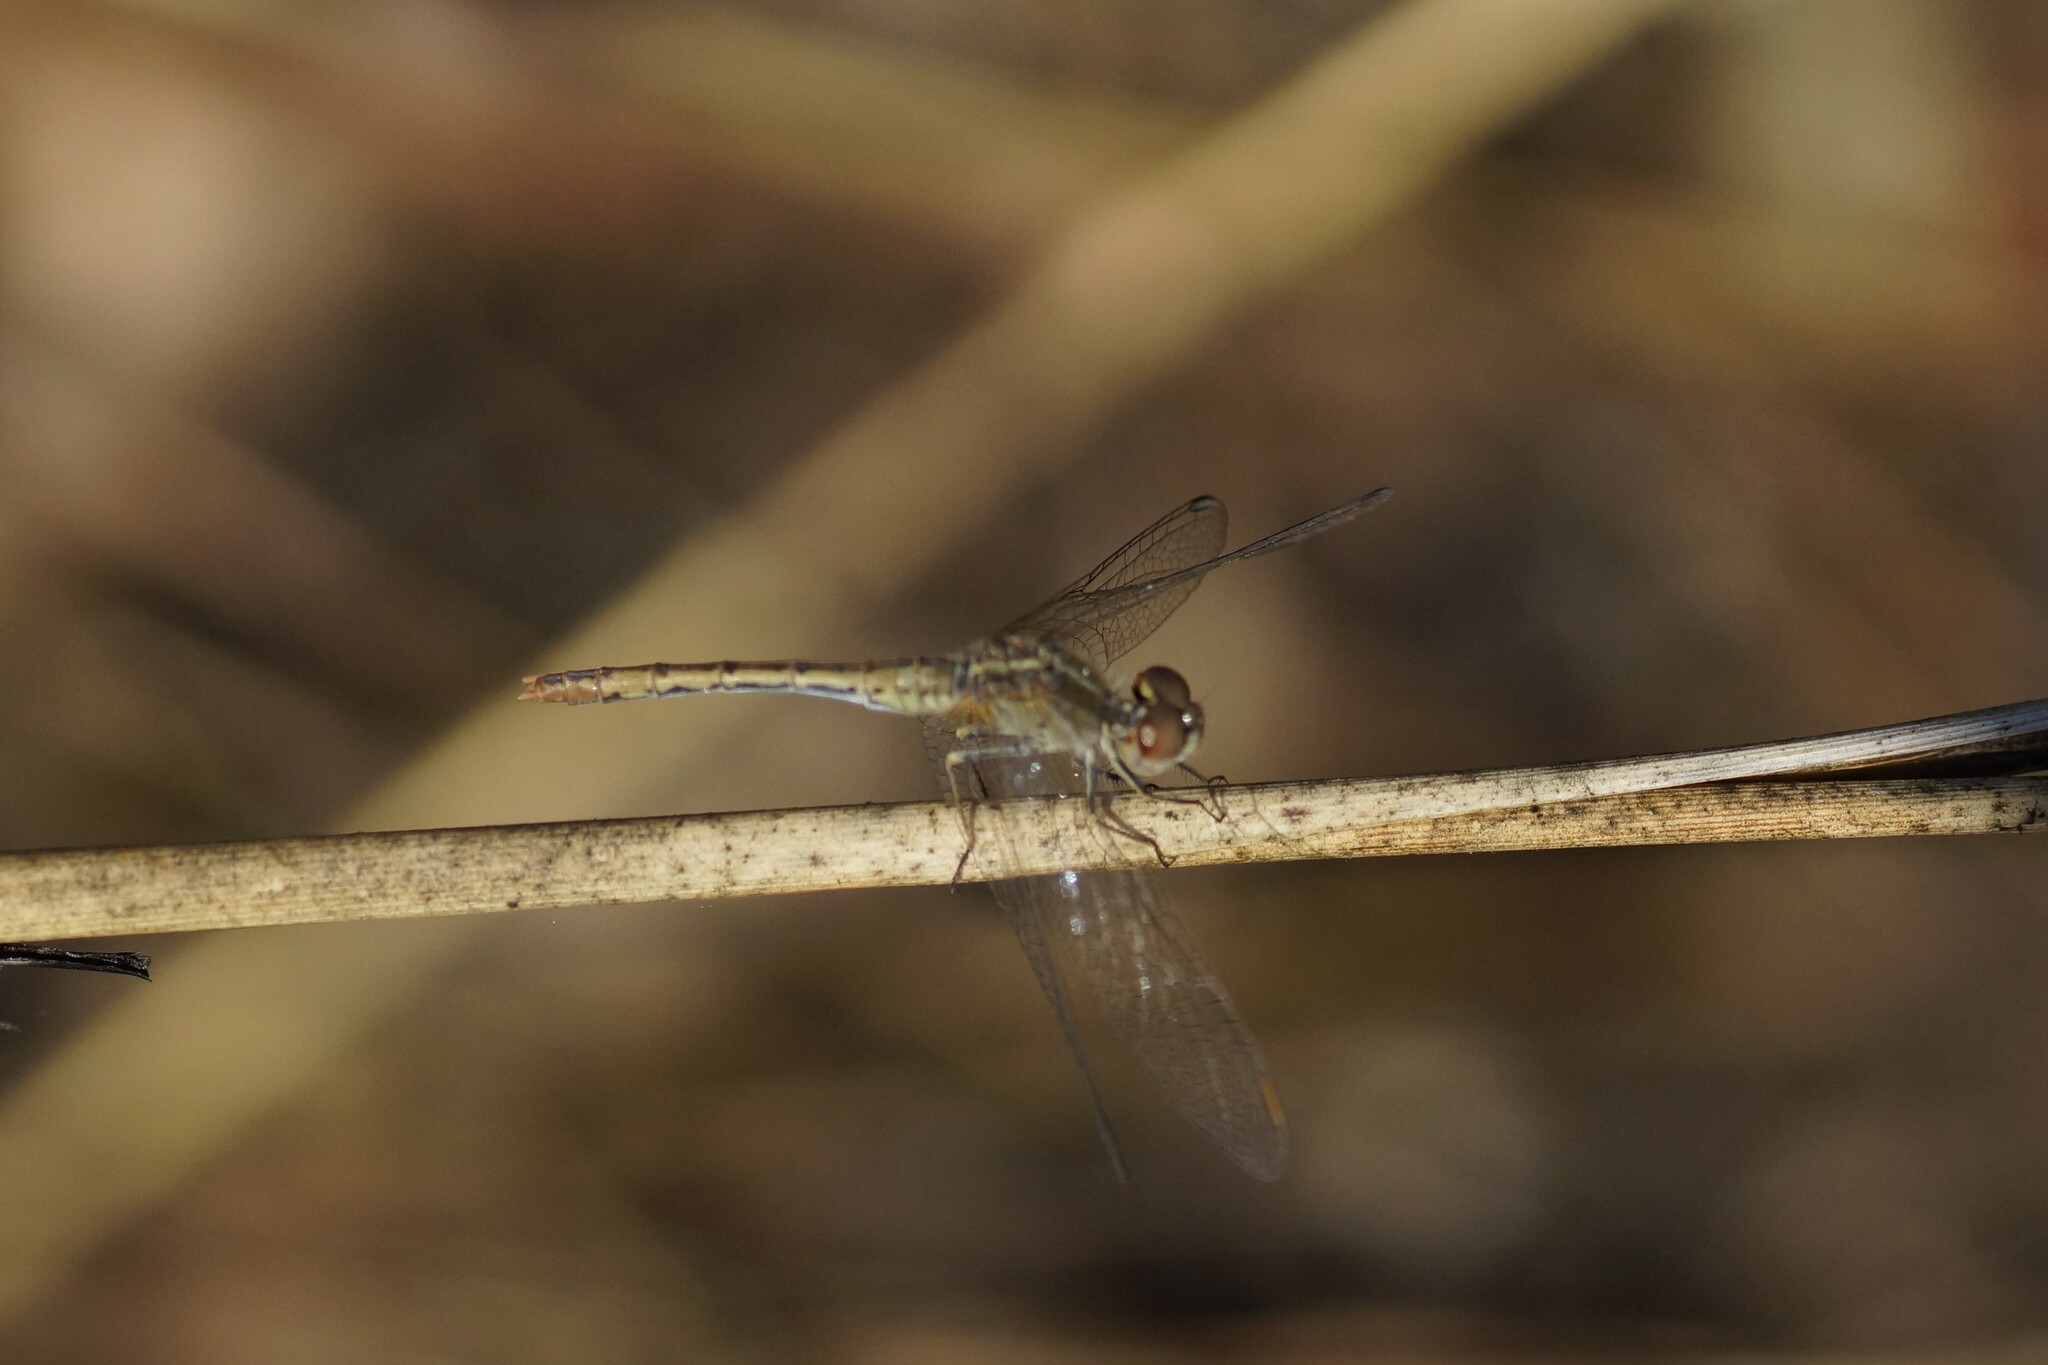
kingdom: Animalia
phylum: Arthropoda
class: Insecta
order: Odonata
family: Libellulidae
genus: Diplacodes
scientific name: Diplacodes bipunctata
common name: Red percher dragonfly
